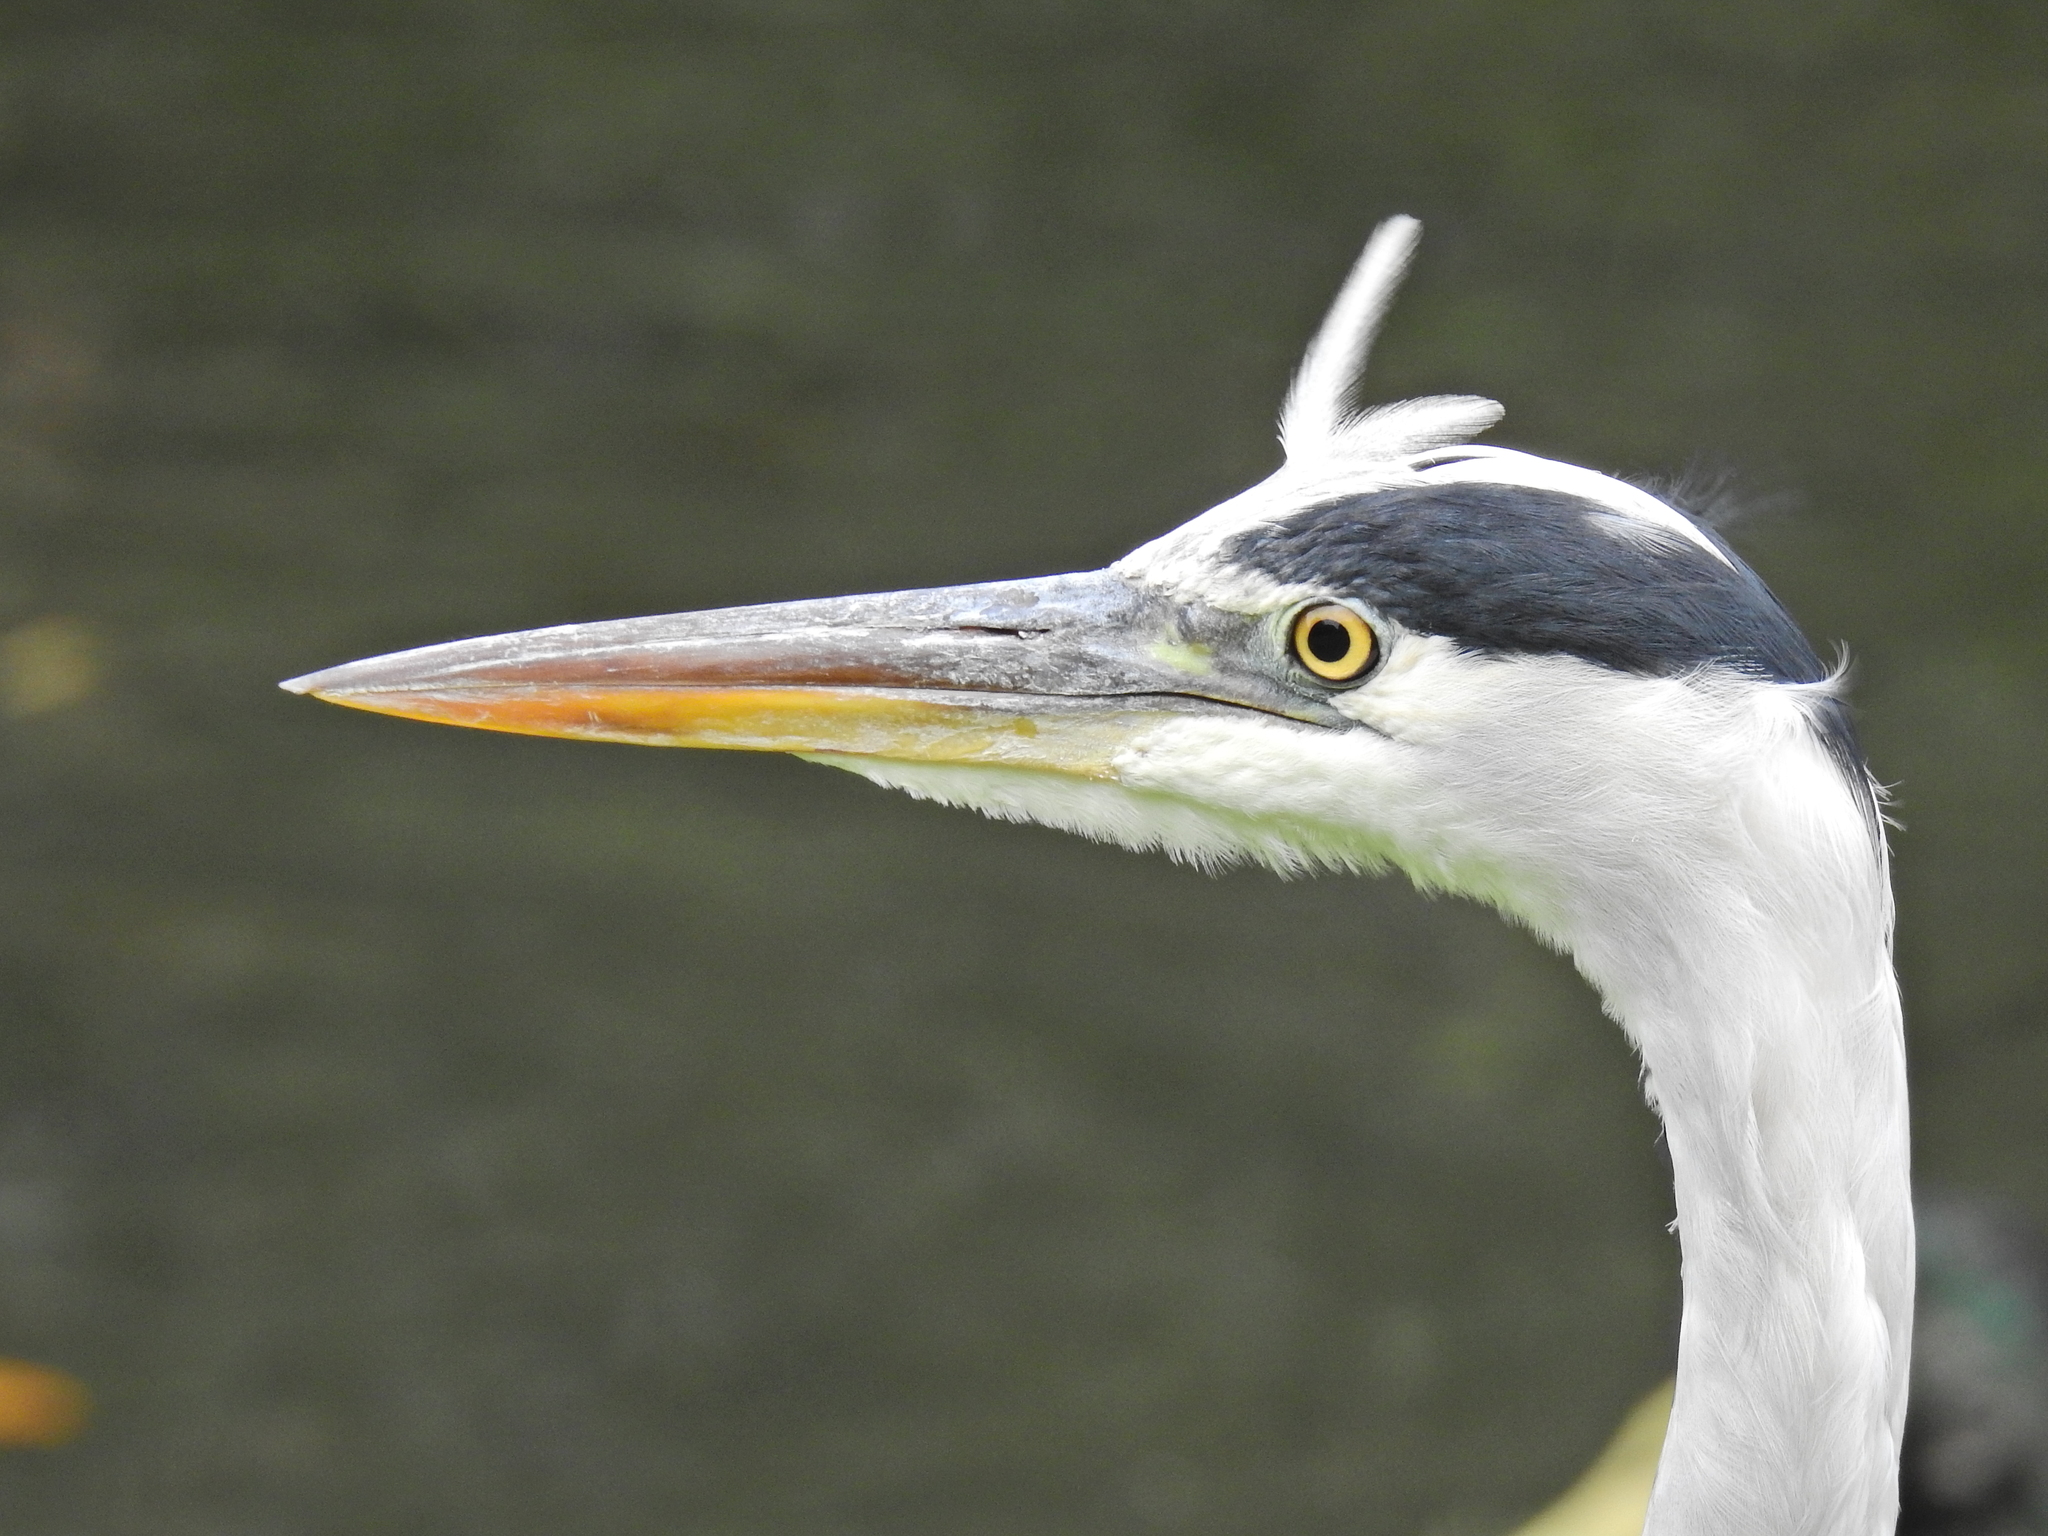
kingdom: Animalia
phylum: Chordata
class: Aves
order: Pelecaniformes
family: Ardeidae
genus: Ardea
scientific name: Ardea cinerea
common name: Grey heron
